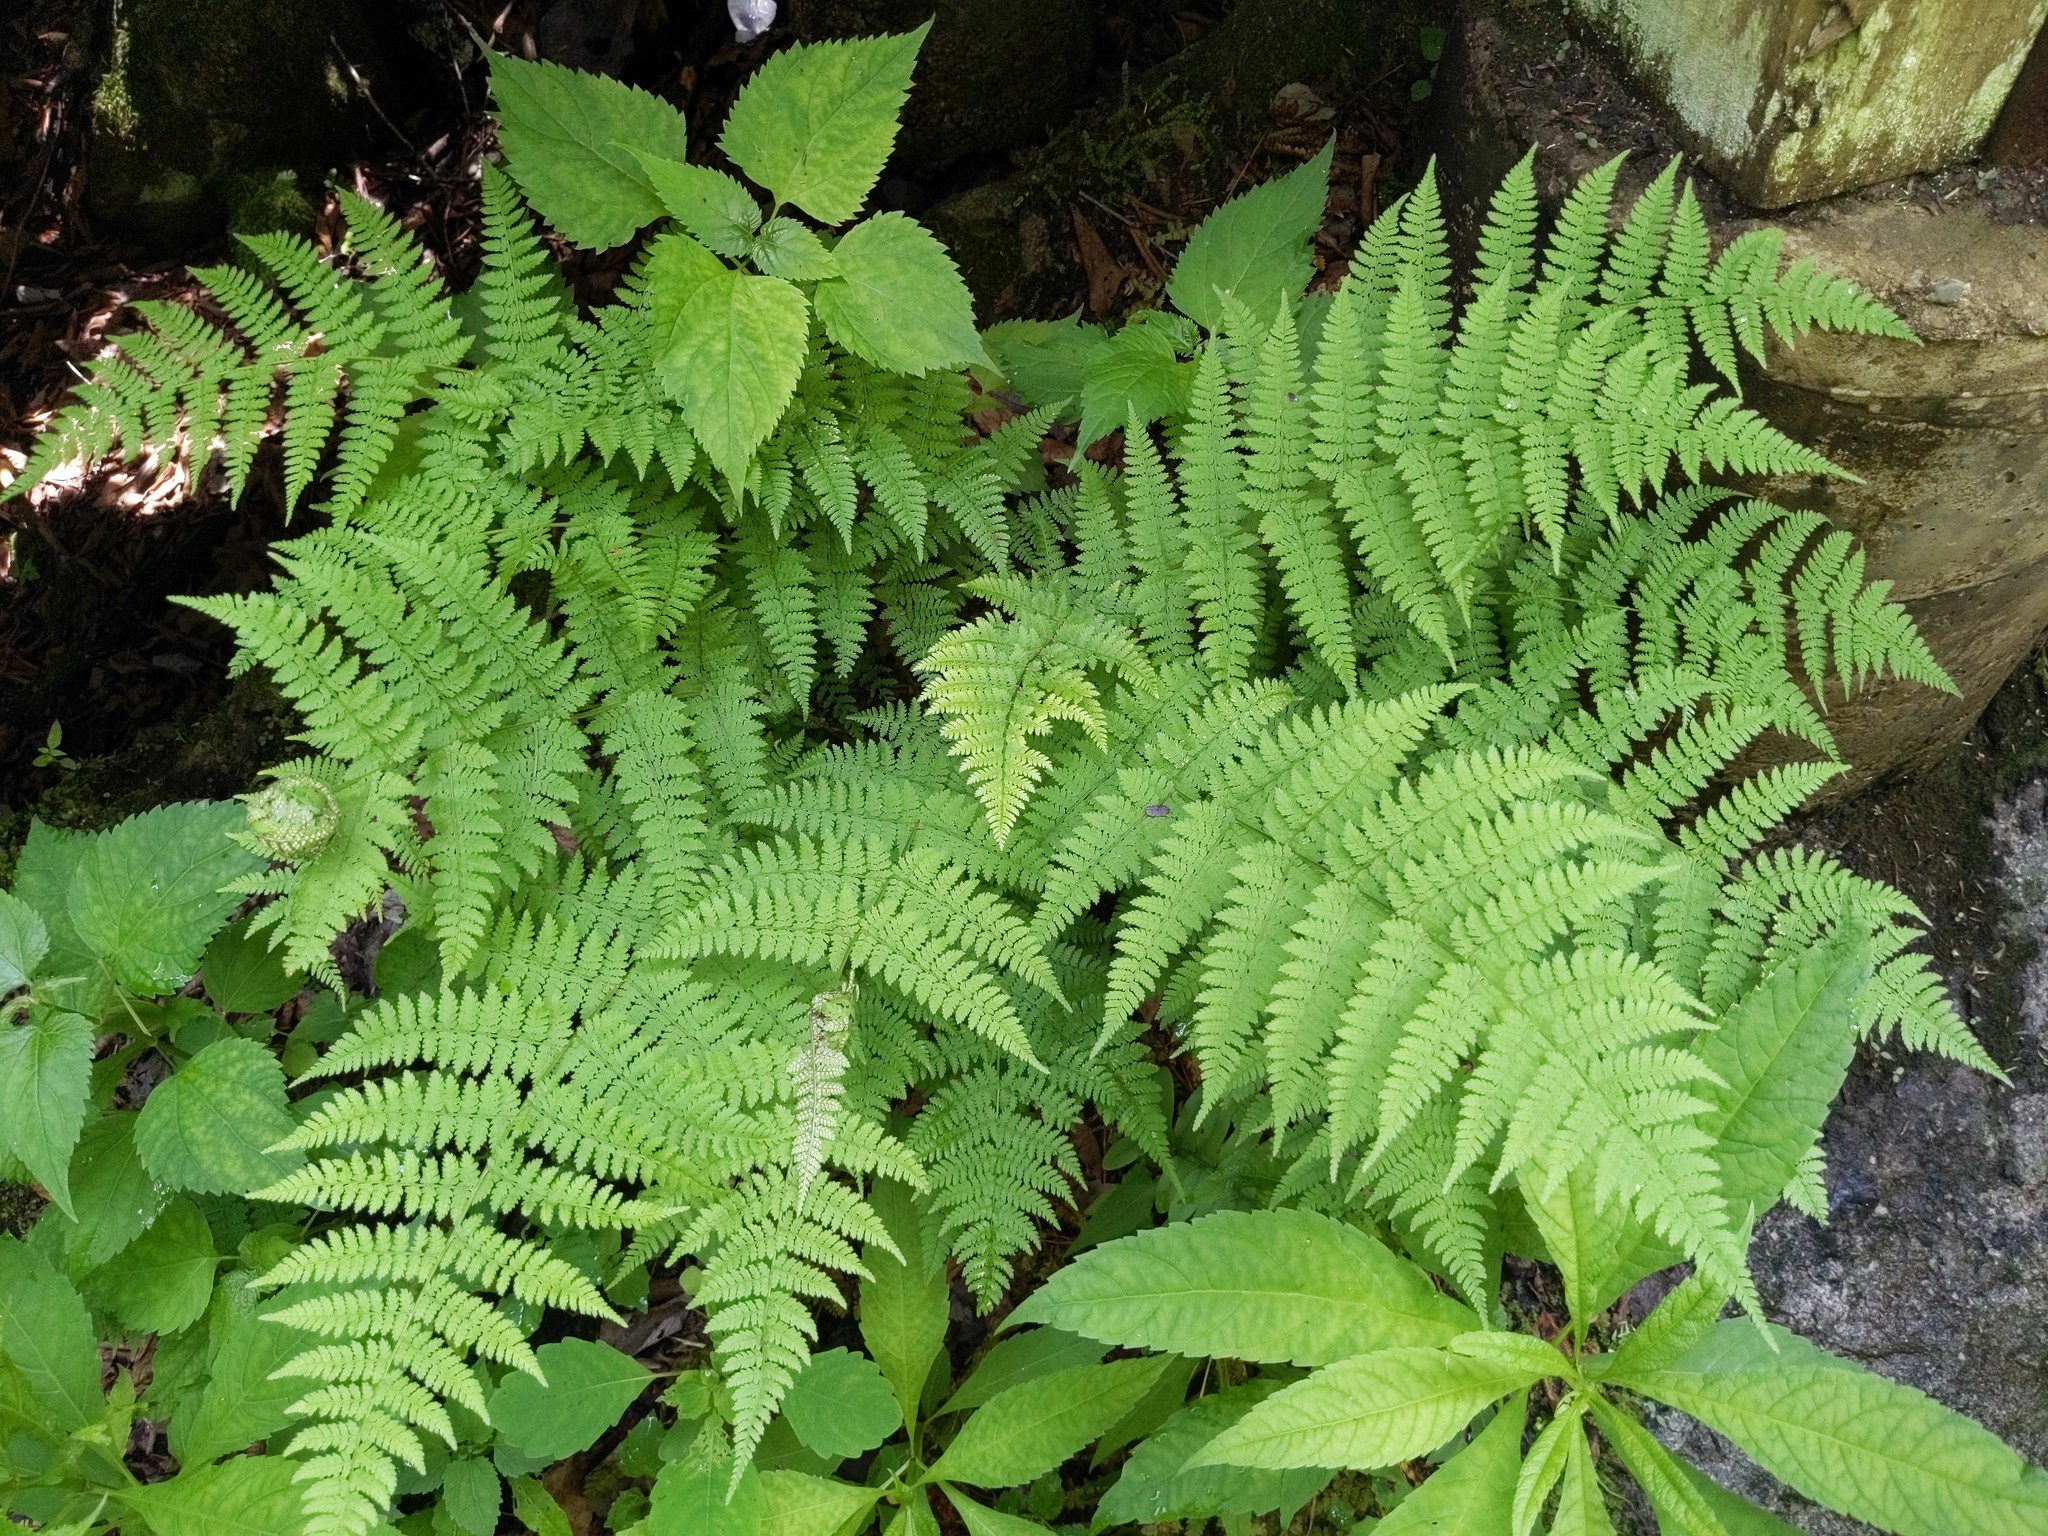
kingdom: Plantae
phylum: Tracheophyta
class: Polypodiopsida
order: Polypodiales
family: Dryopteridaceae
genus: Dryopteris
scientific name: Dryopteris intermedia
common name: Evergreen wood fern
